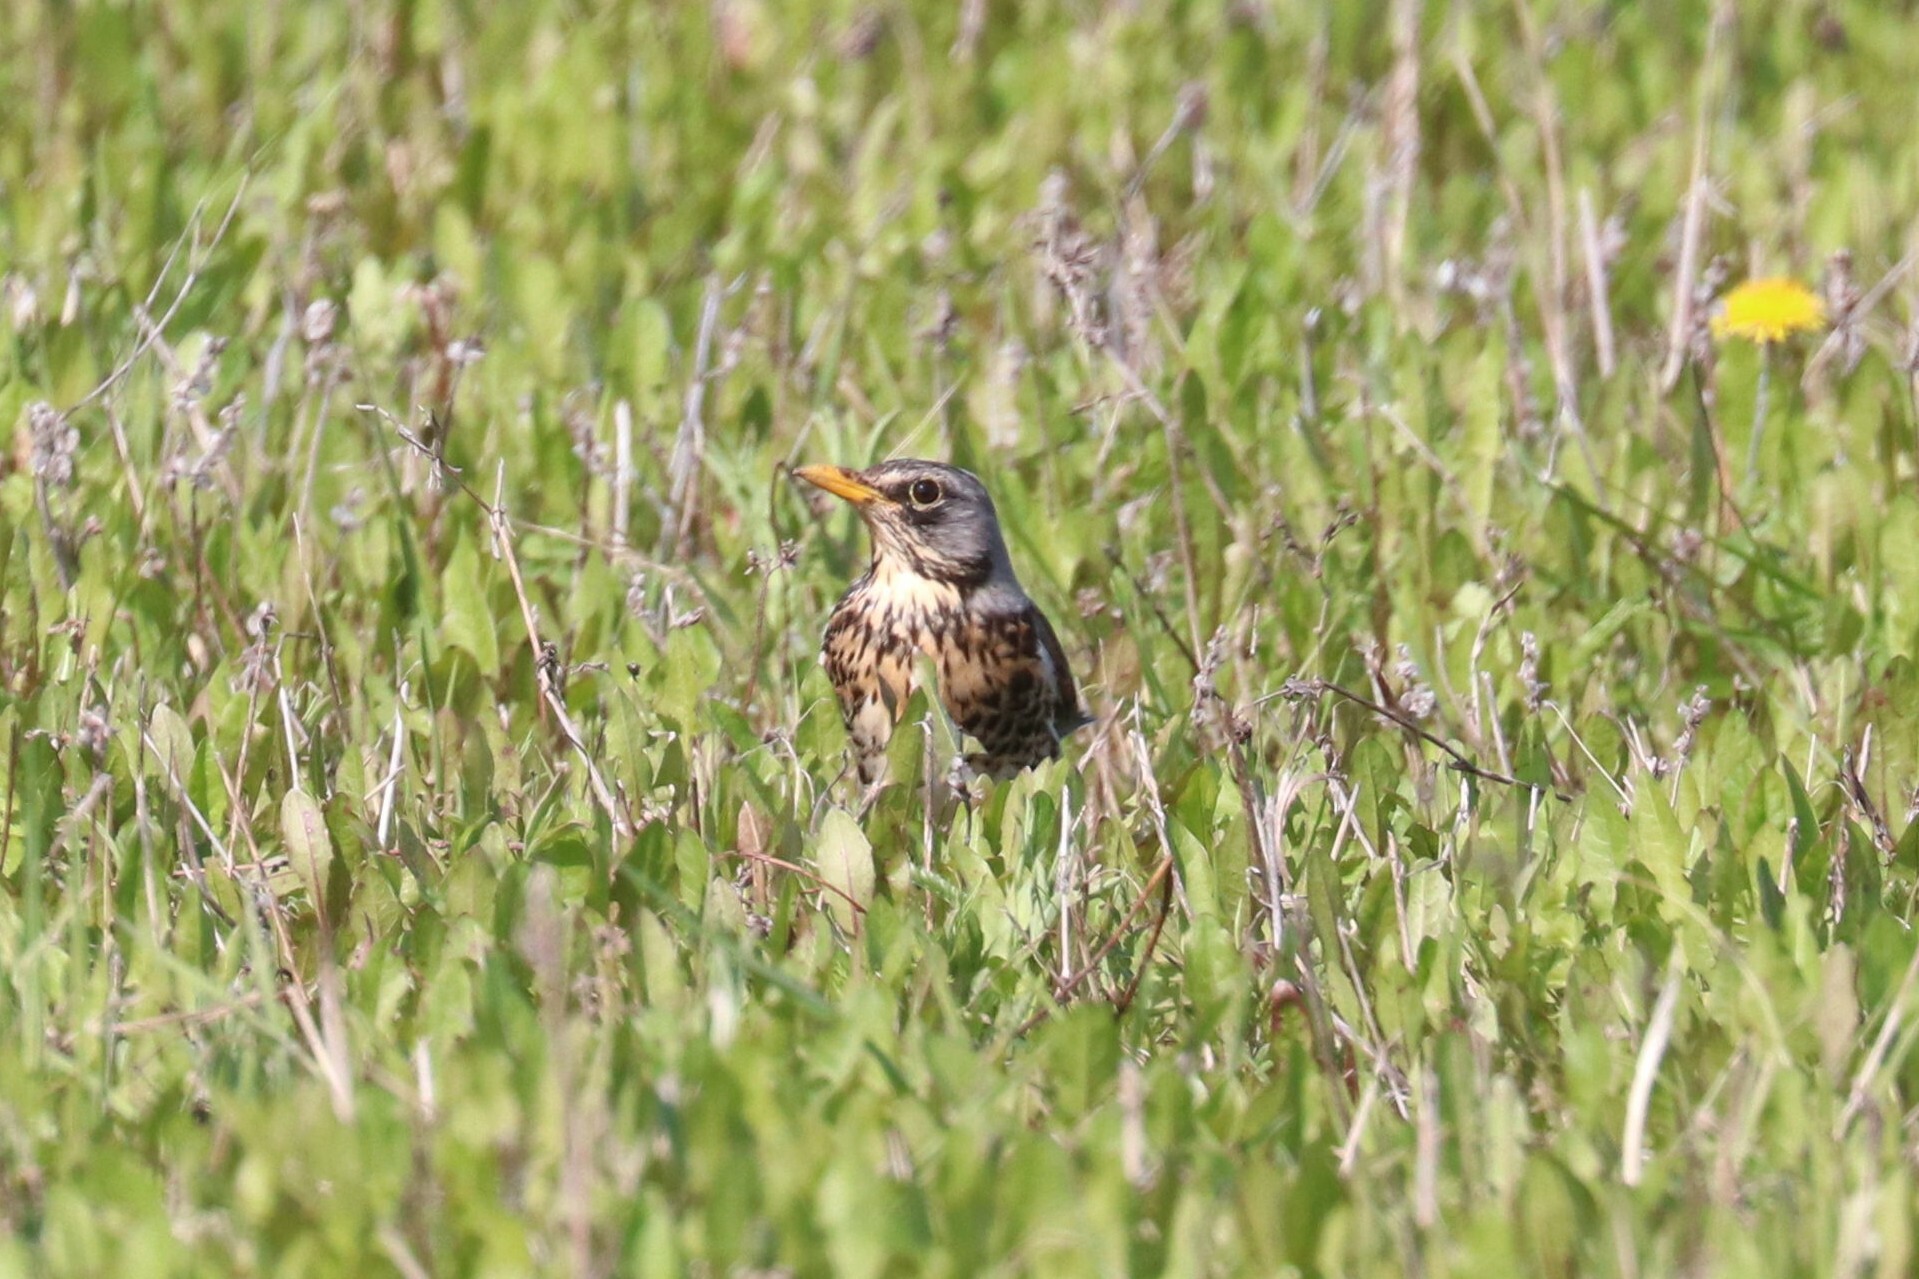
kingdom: Animalia
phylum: Chordata
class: Aves
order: Passeriformes
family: Turdidae
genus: Turdus
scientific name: Turdus pilaris
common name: Fieldfare
